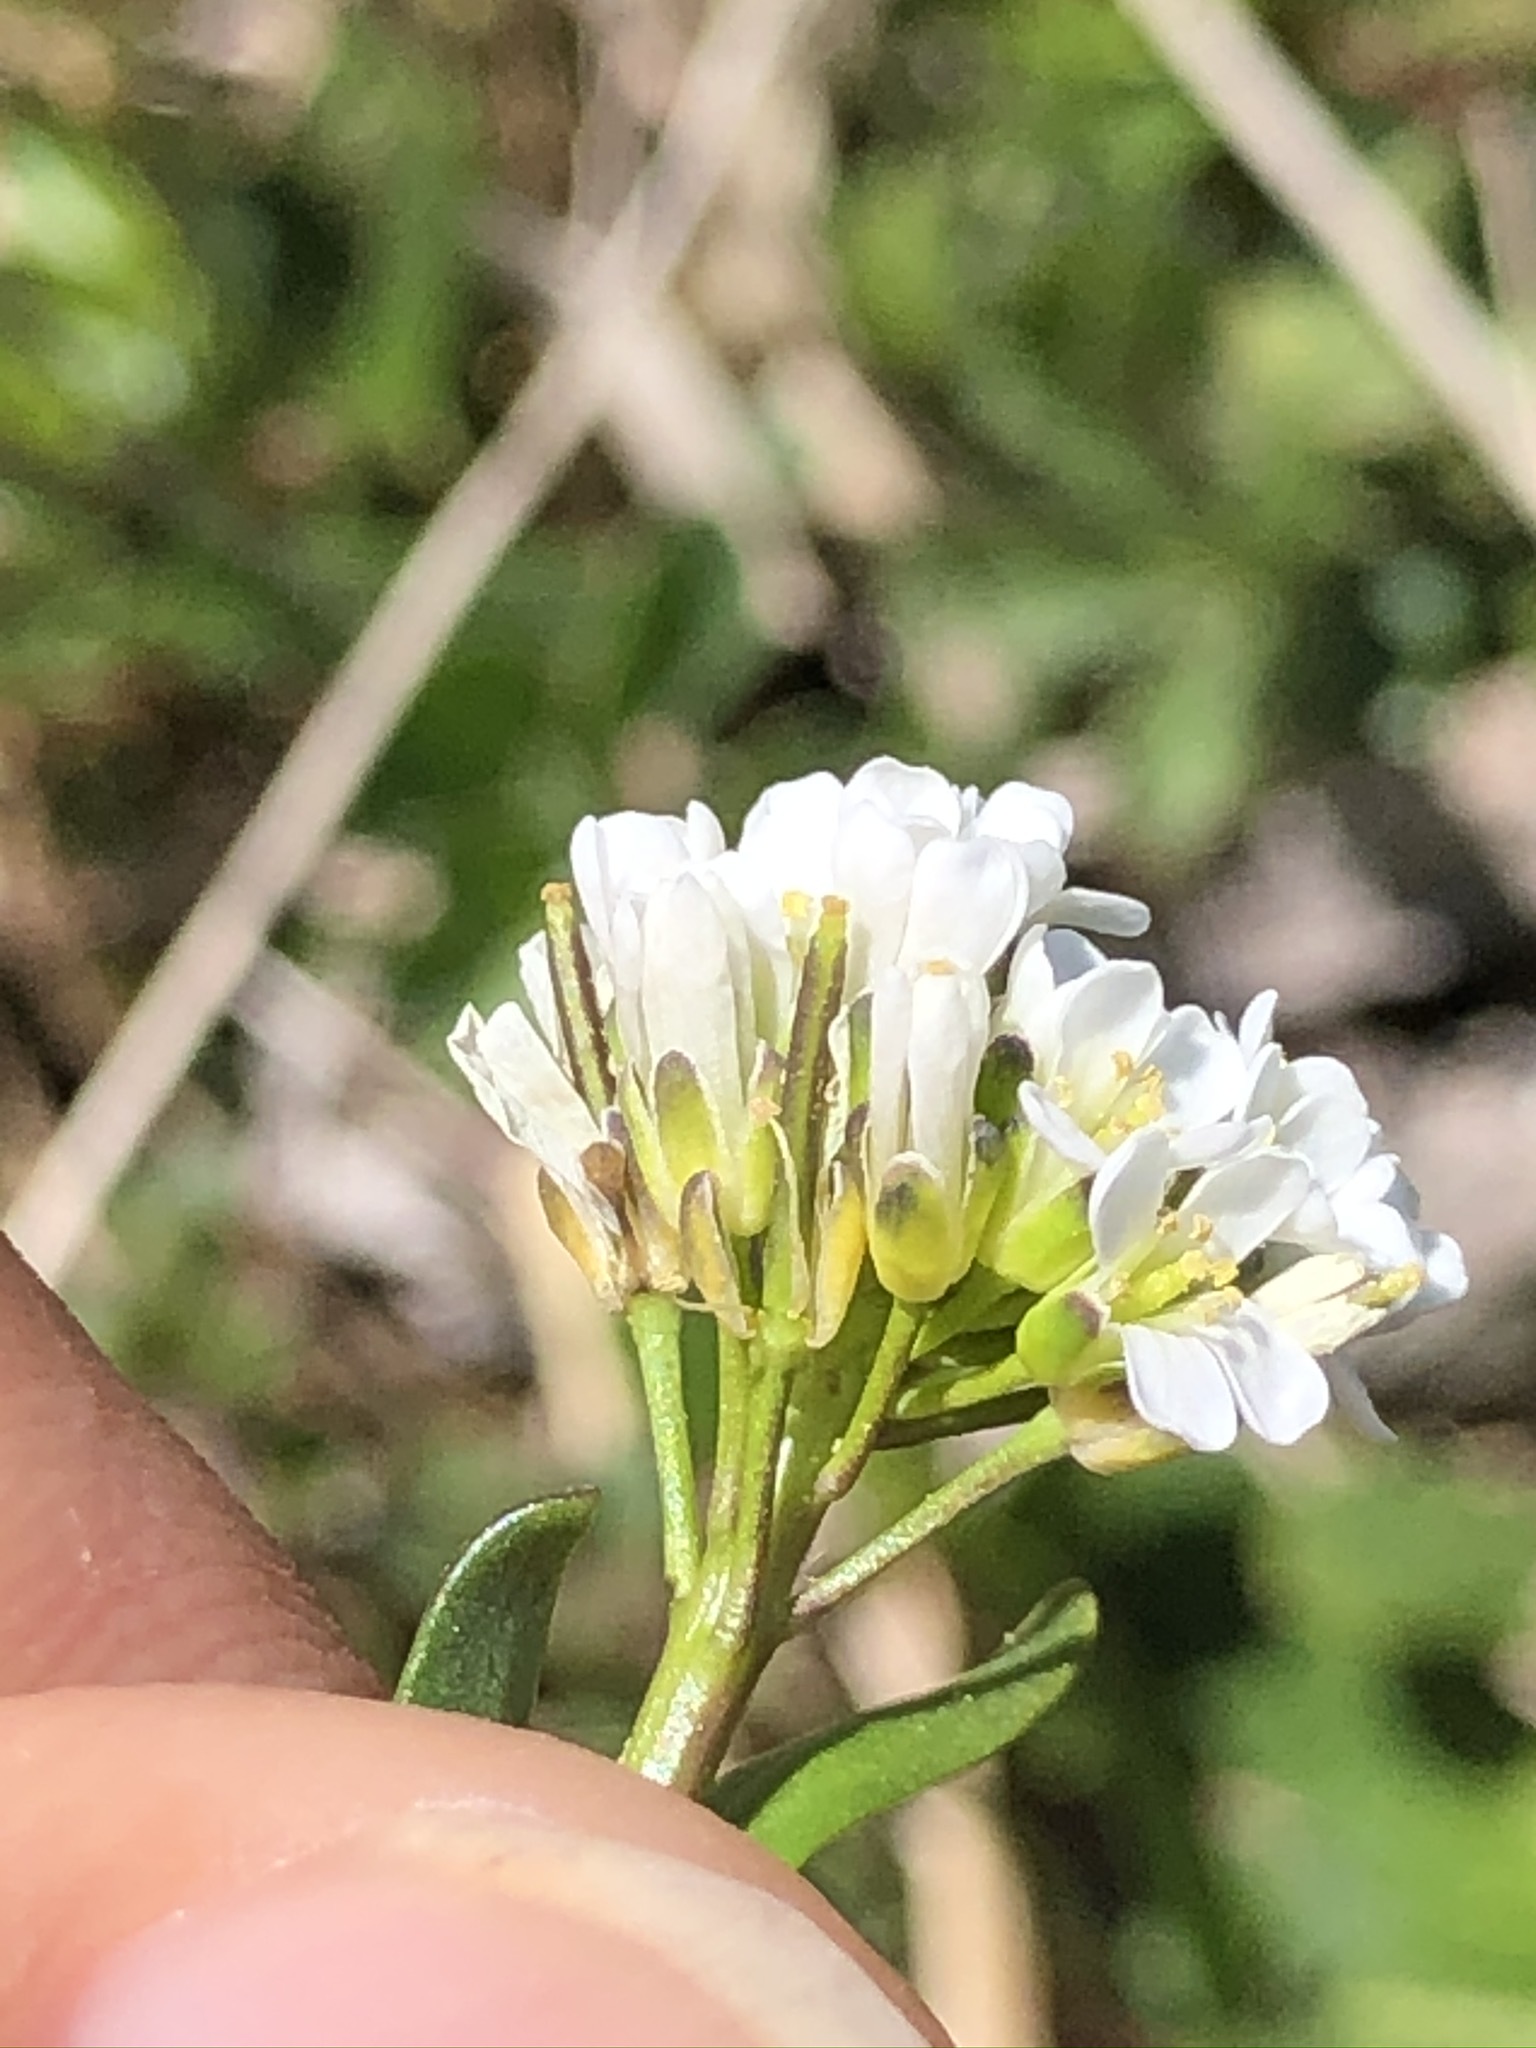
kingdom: Plantae
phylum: Tracheophyta
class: Magnoliopsida
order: Brassicales
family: Brassicaceae
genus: Arabis
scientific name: Arabis soyeri
